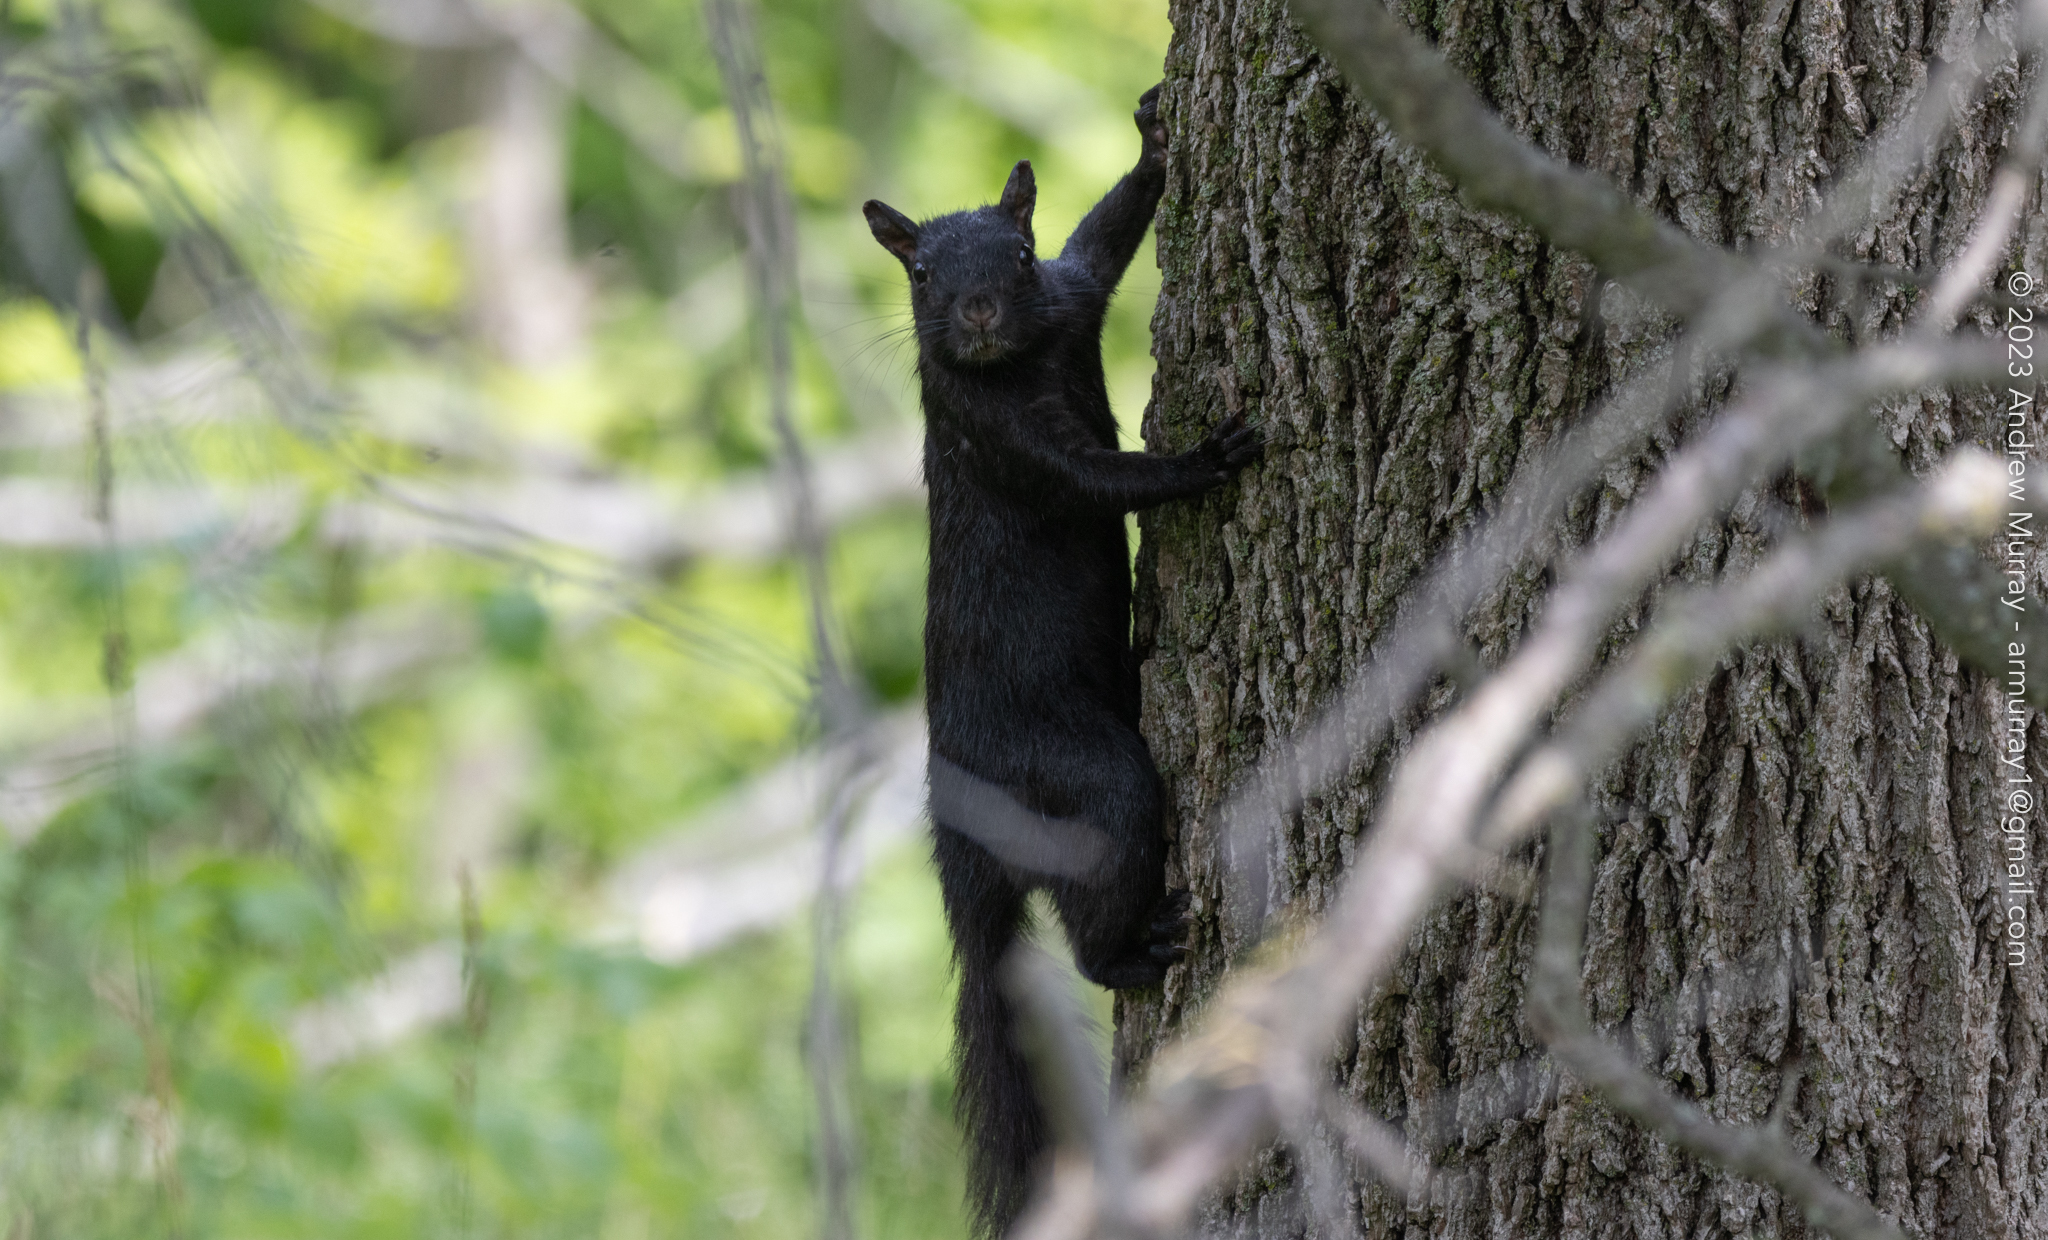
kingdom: Animalia
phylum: Chordata
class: Mammalia
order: Rodentia
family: Sciuridae
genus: Sciurus
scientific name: Sciurus carolinensis
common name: Eastern gray squirrel
